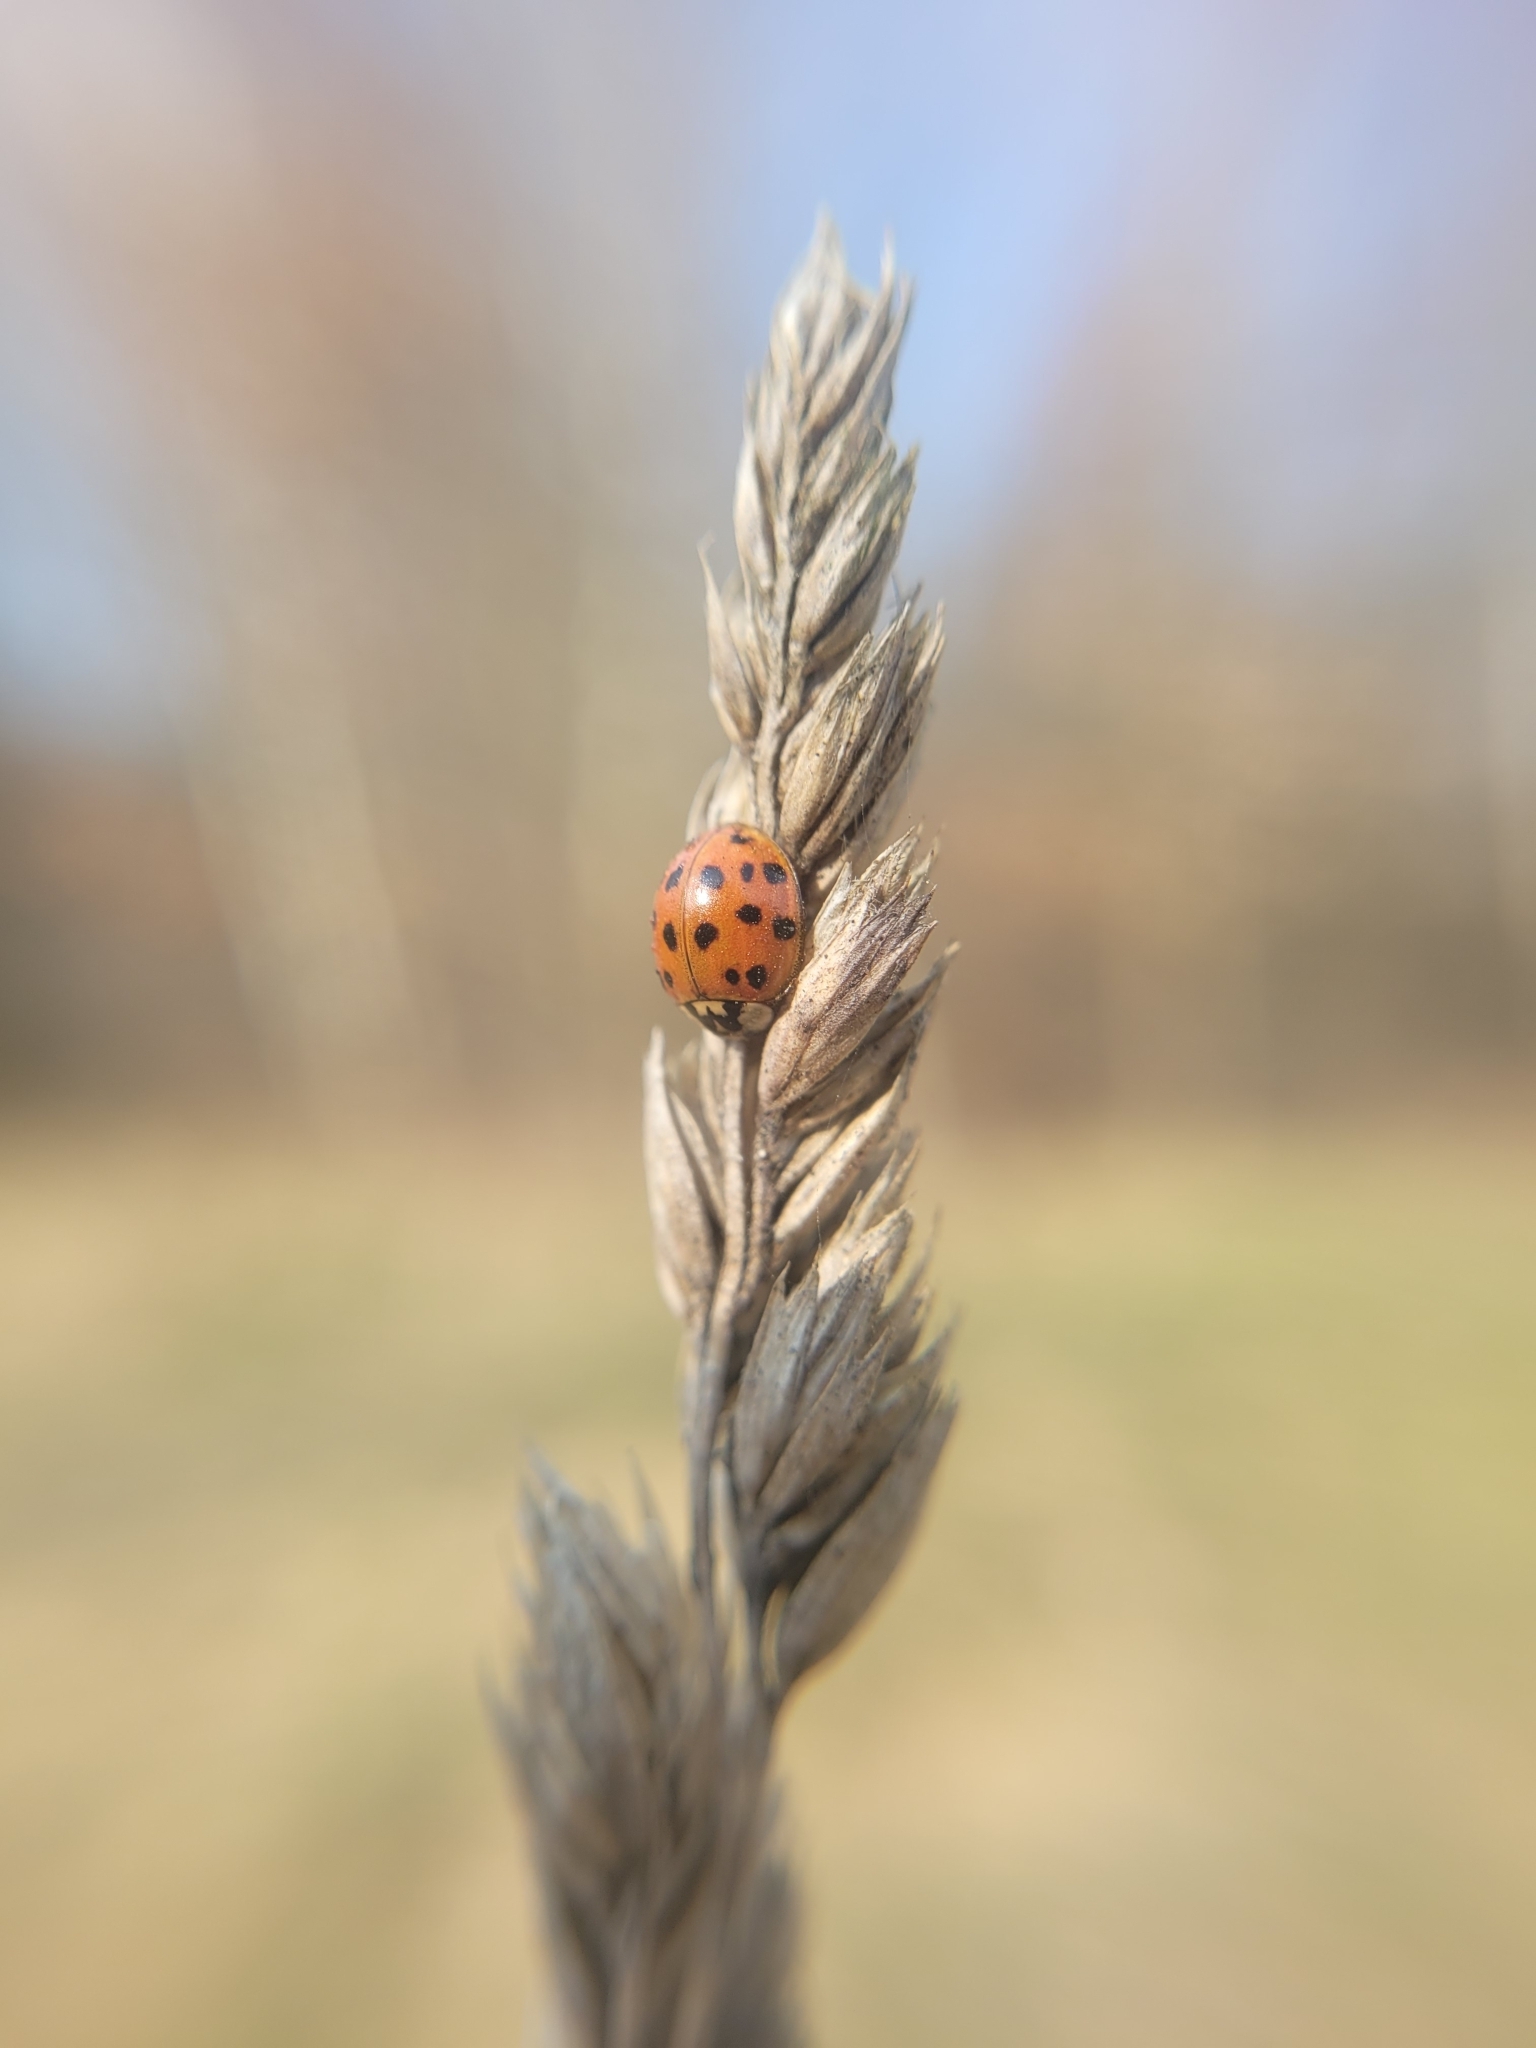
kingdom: Animalia
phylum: Arthropoda
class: Insecta
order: Coleoptera
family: Coccinellidae
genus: Harmonia
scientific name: Harmonia axyridis
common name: Harlequin ladybird
